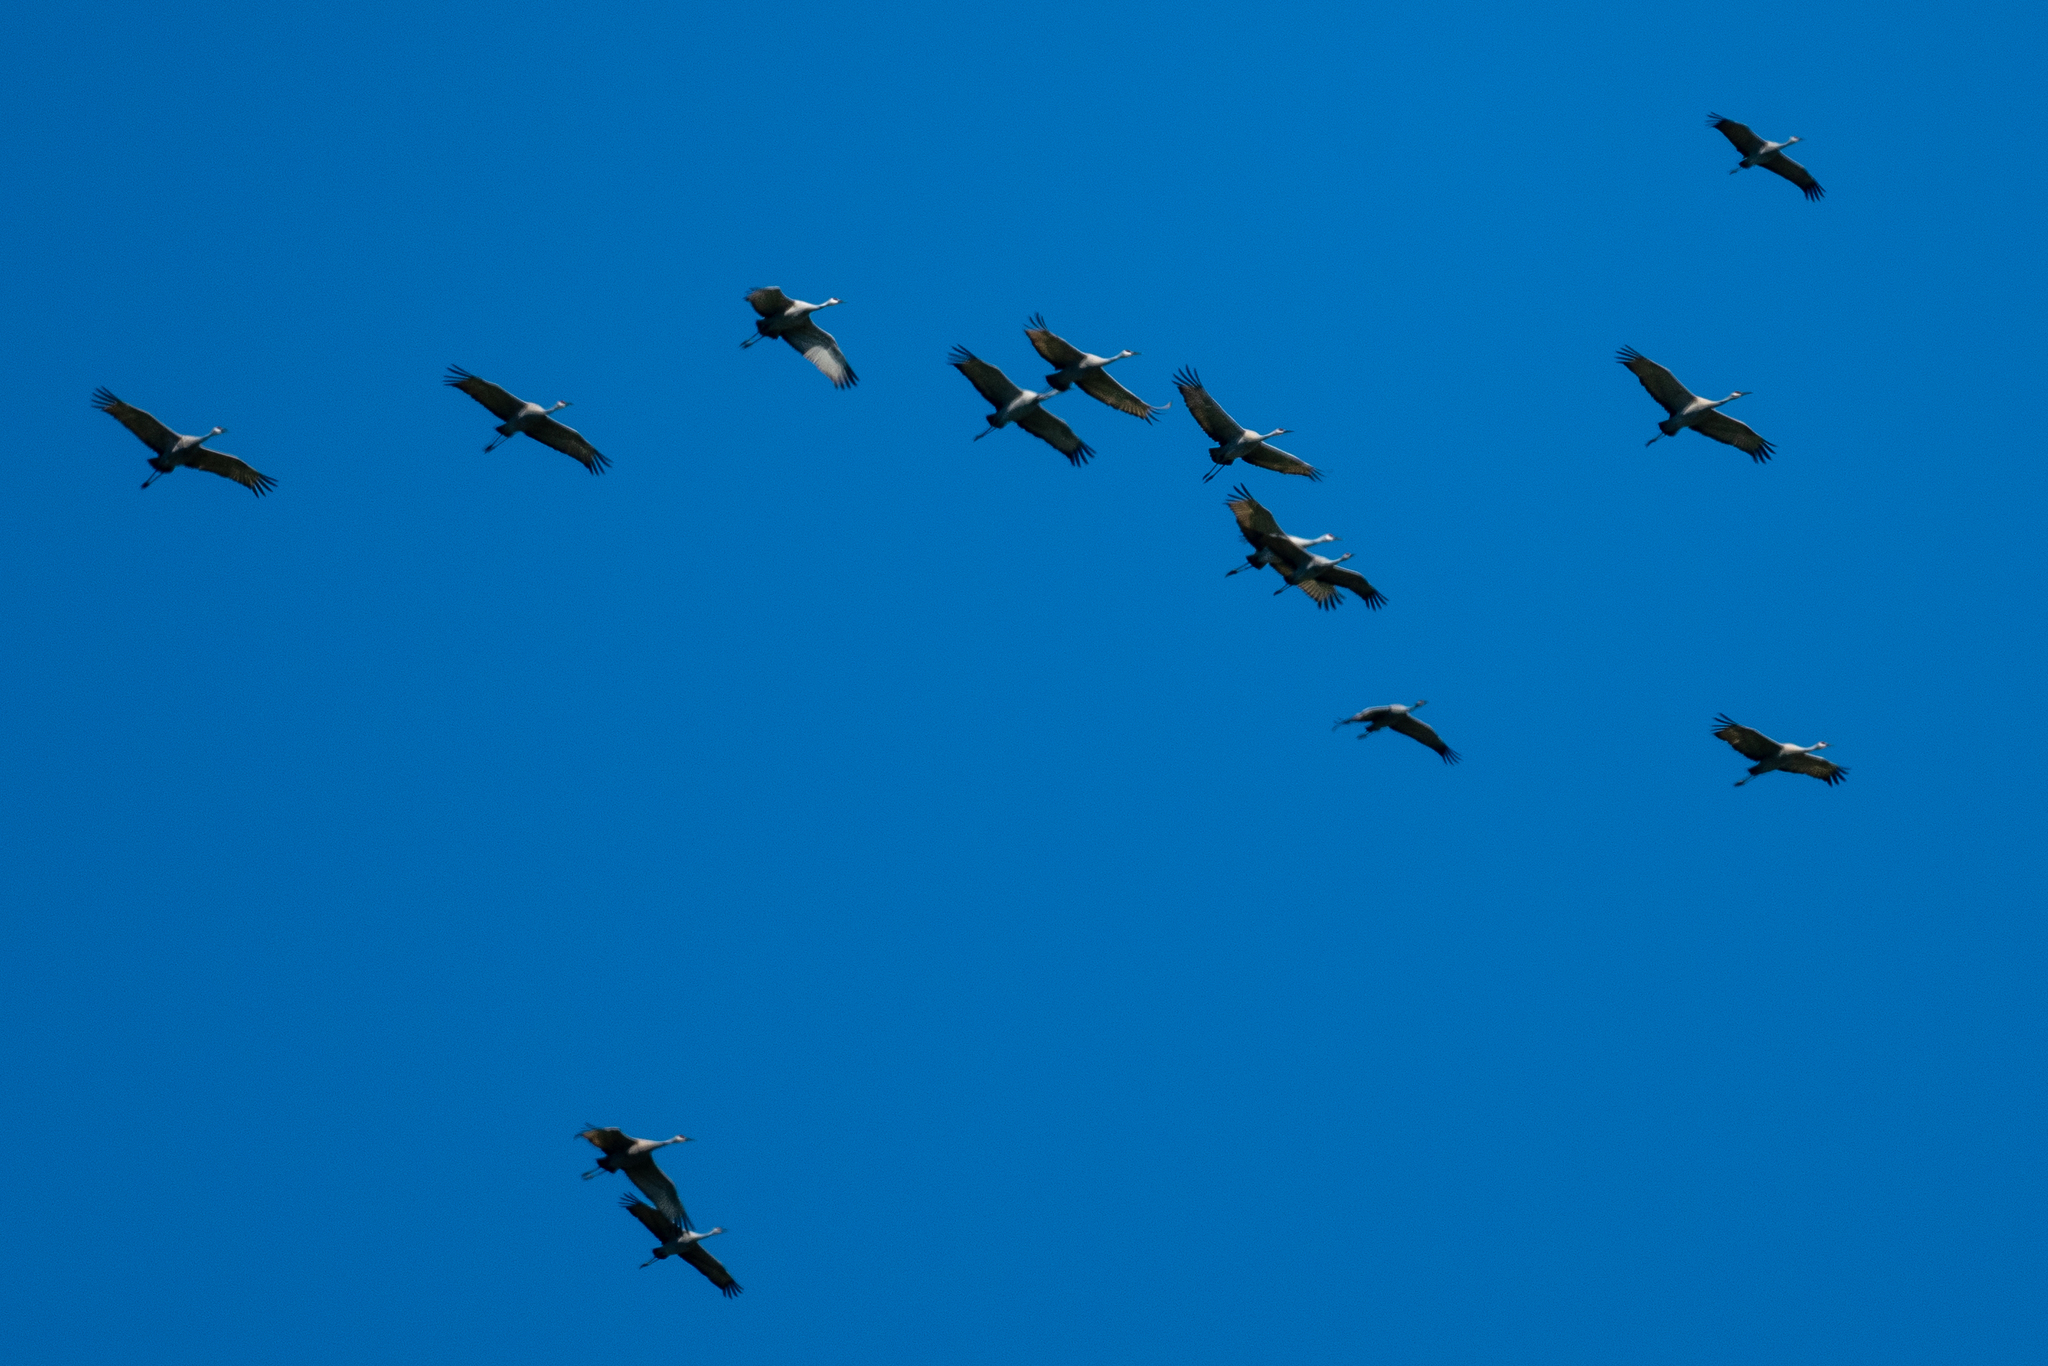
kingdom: Animalia
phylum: Chordata
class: Aves
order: Gruiformes
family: Gruidae
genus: Grus
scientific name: Grus canadensis
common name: Sandhill crane
